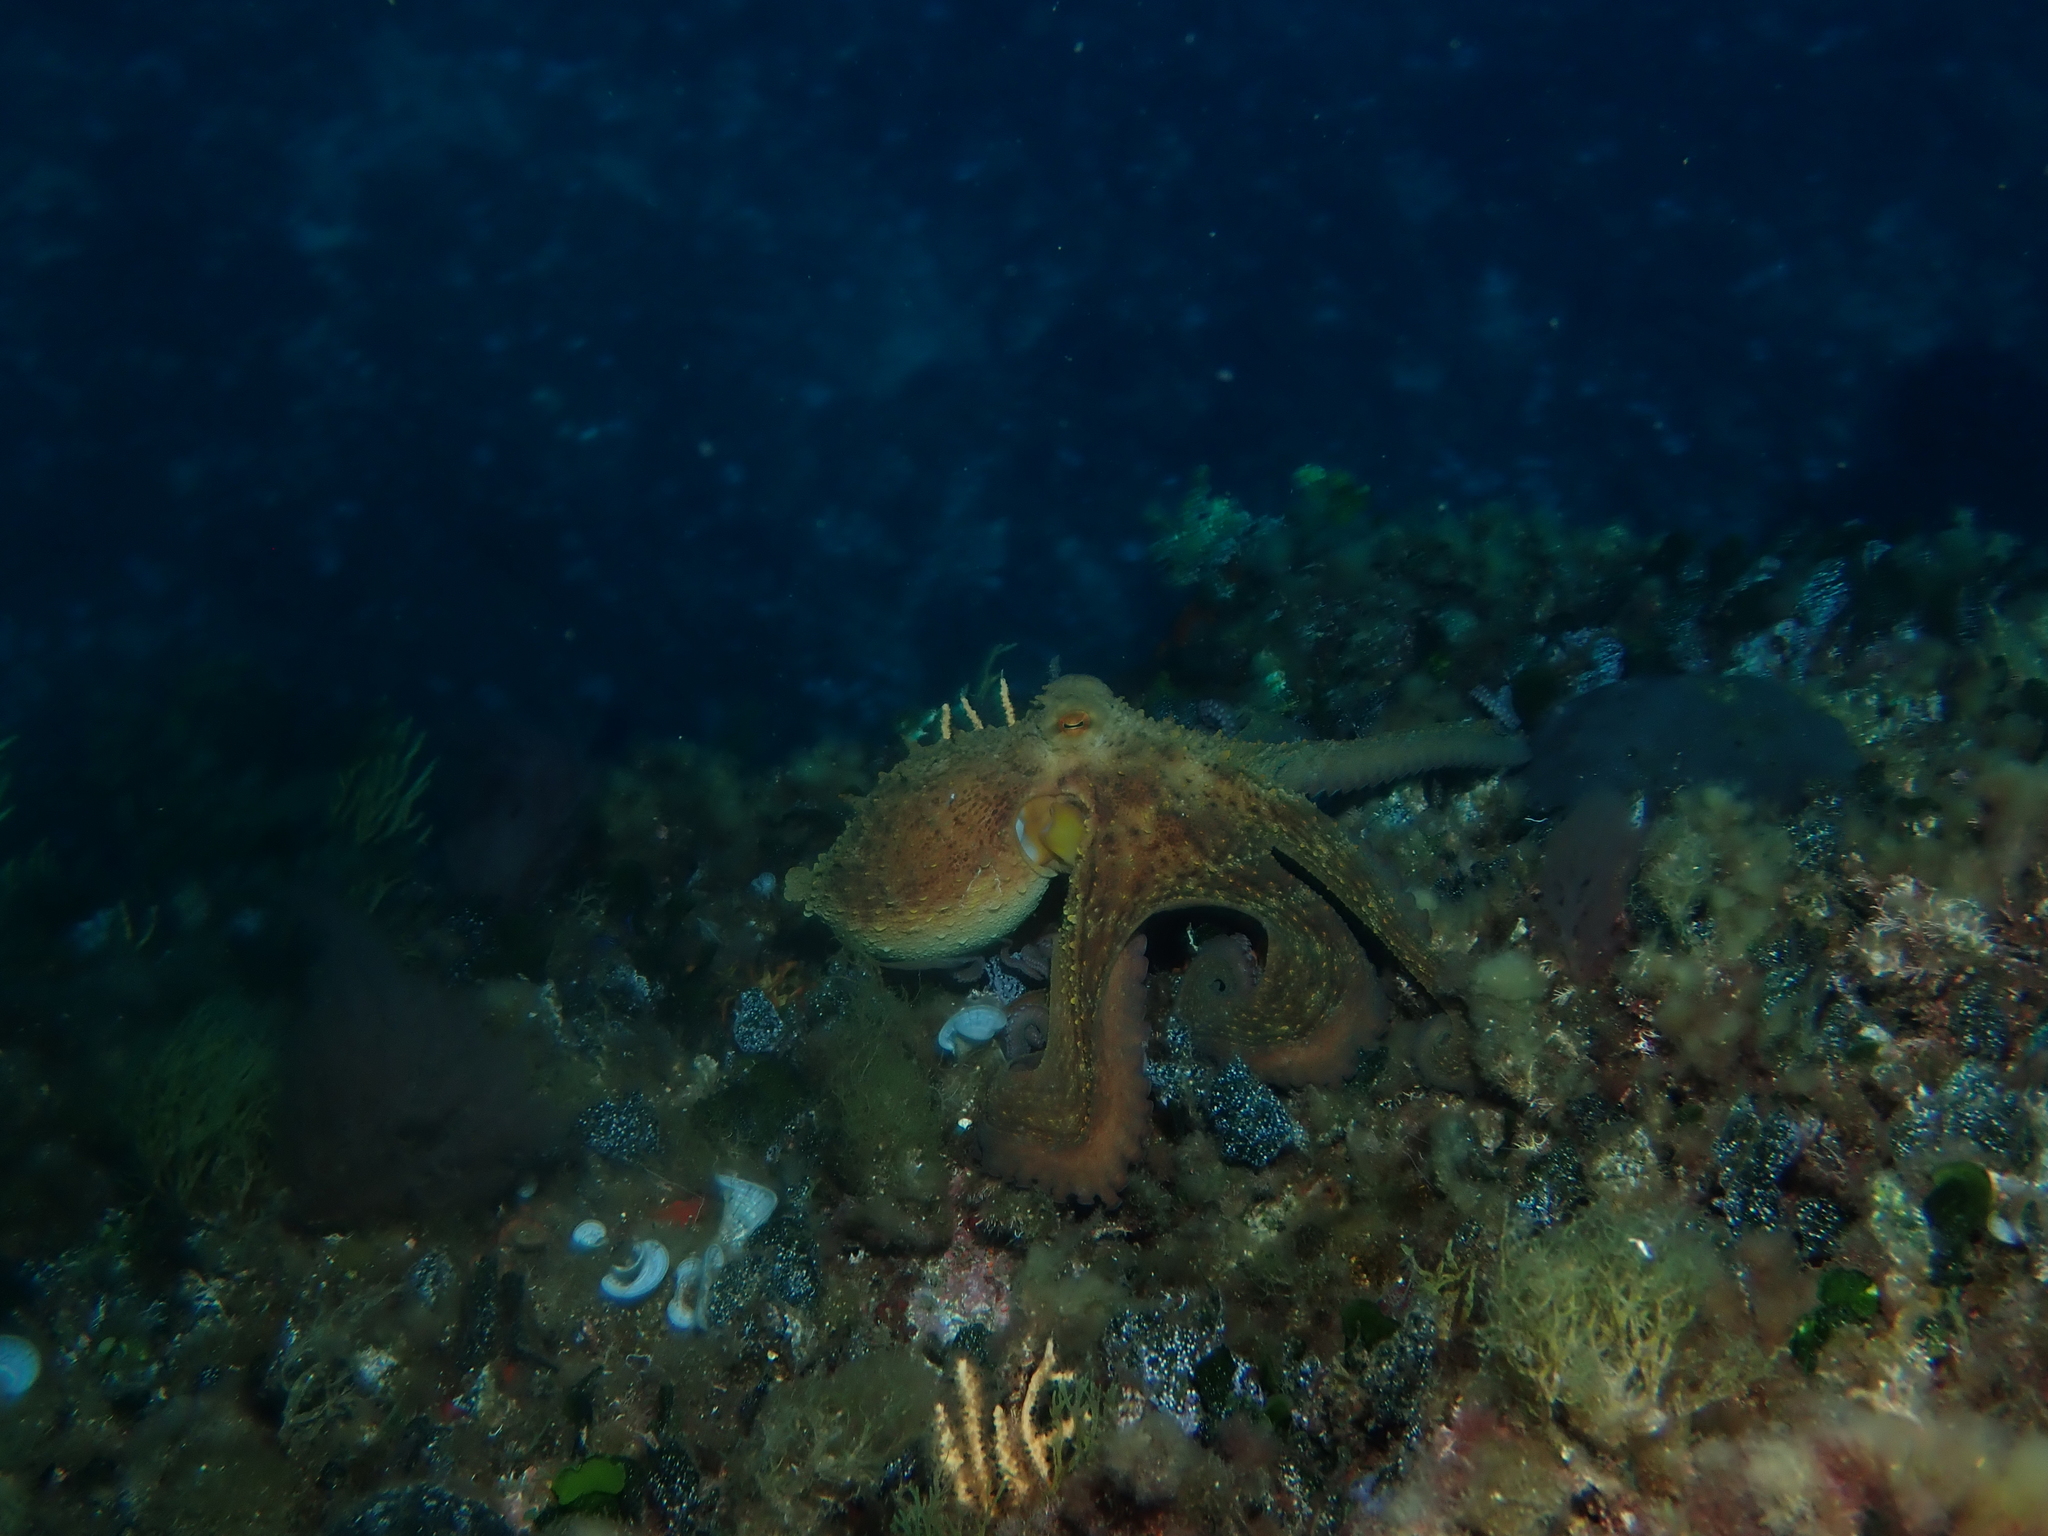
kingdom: Animalia
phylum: Mollusca
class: Cephalopoda
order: Octopoda
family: Octopodidae
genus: Octopus
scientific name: Octopus vulgaris
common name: Common octopus
